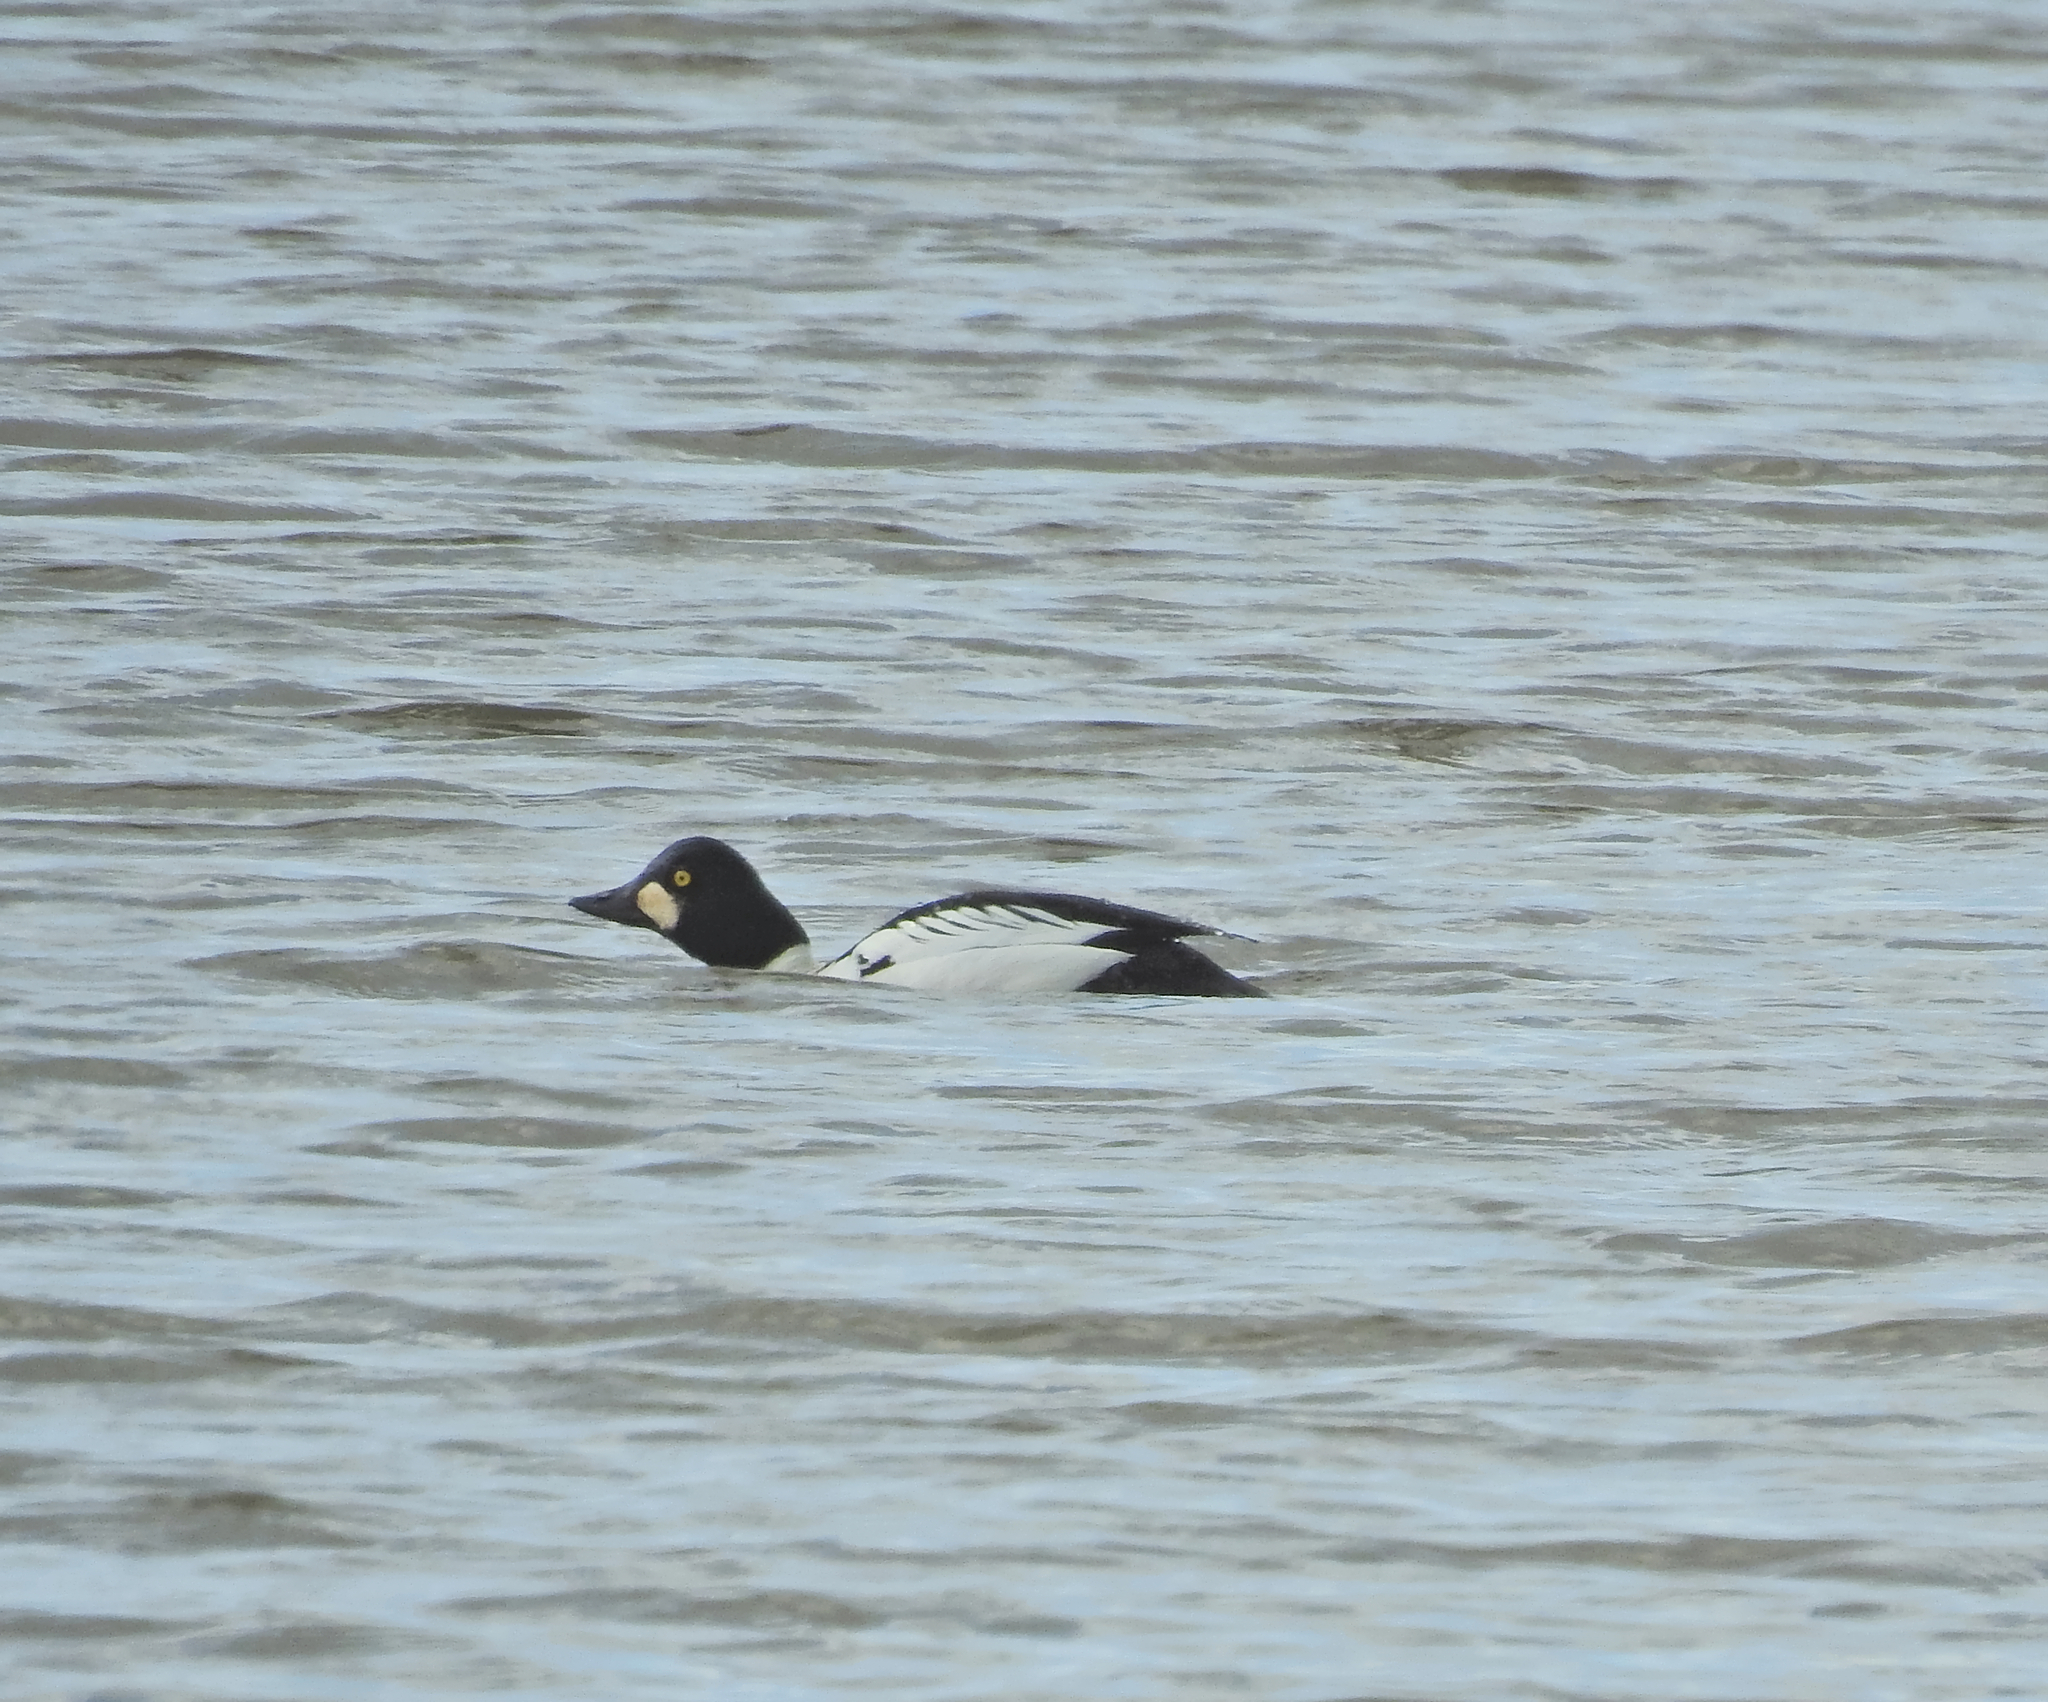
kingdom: Animalia
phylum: Chordata
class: Aves
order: Anseriformes
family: Anatidae
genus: Bucephala
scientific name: Bucephala clangula
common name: Common goldeneye
